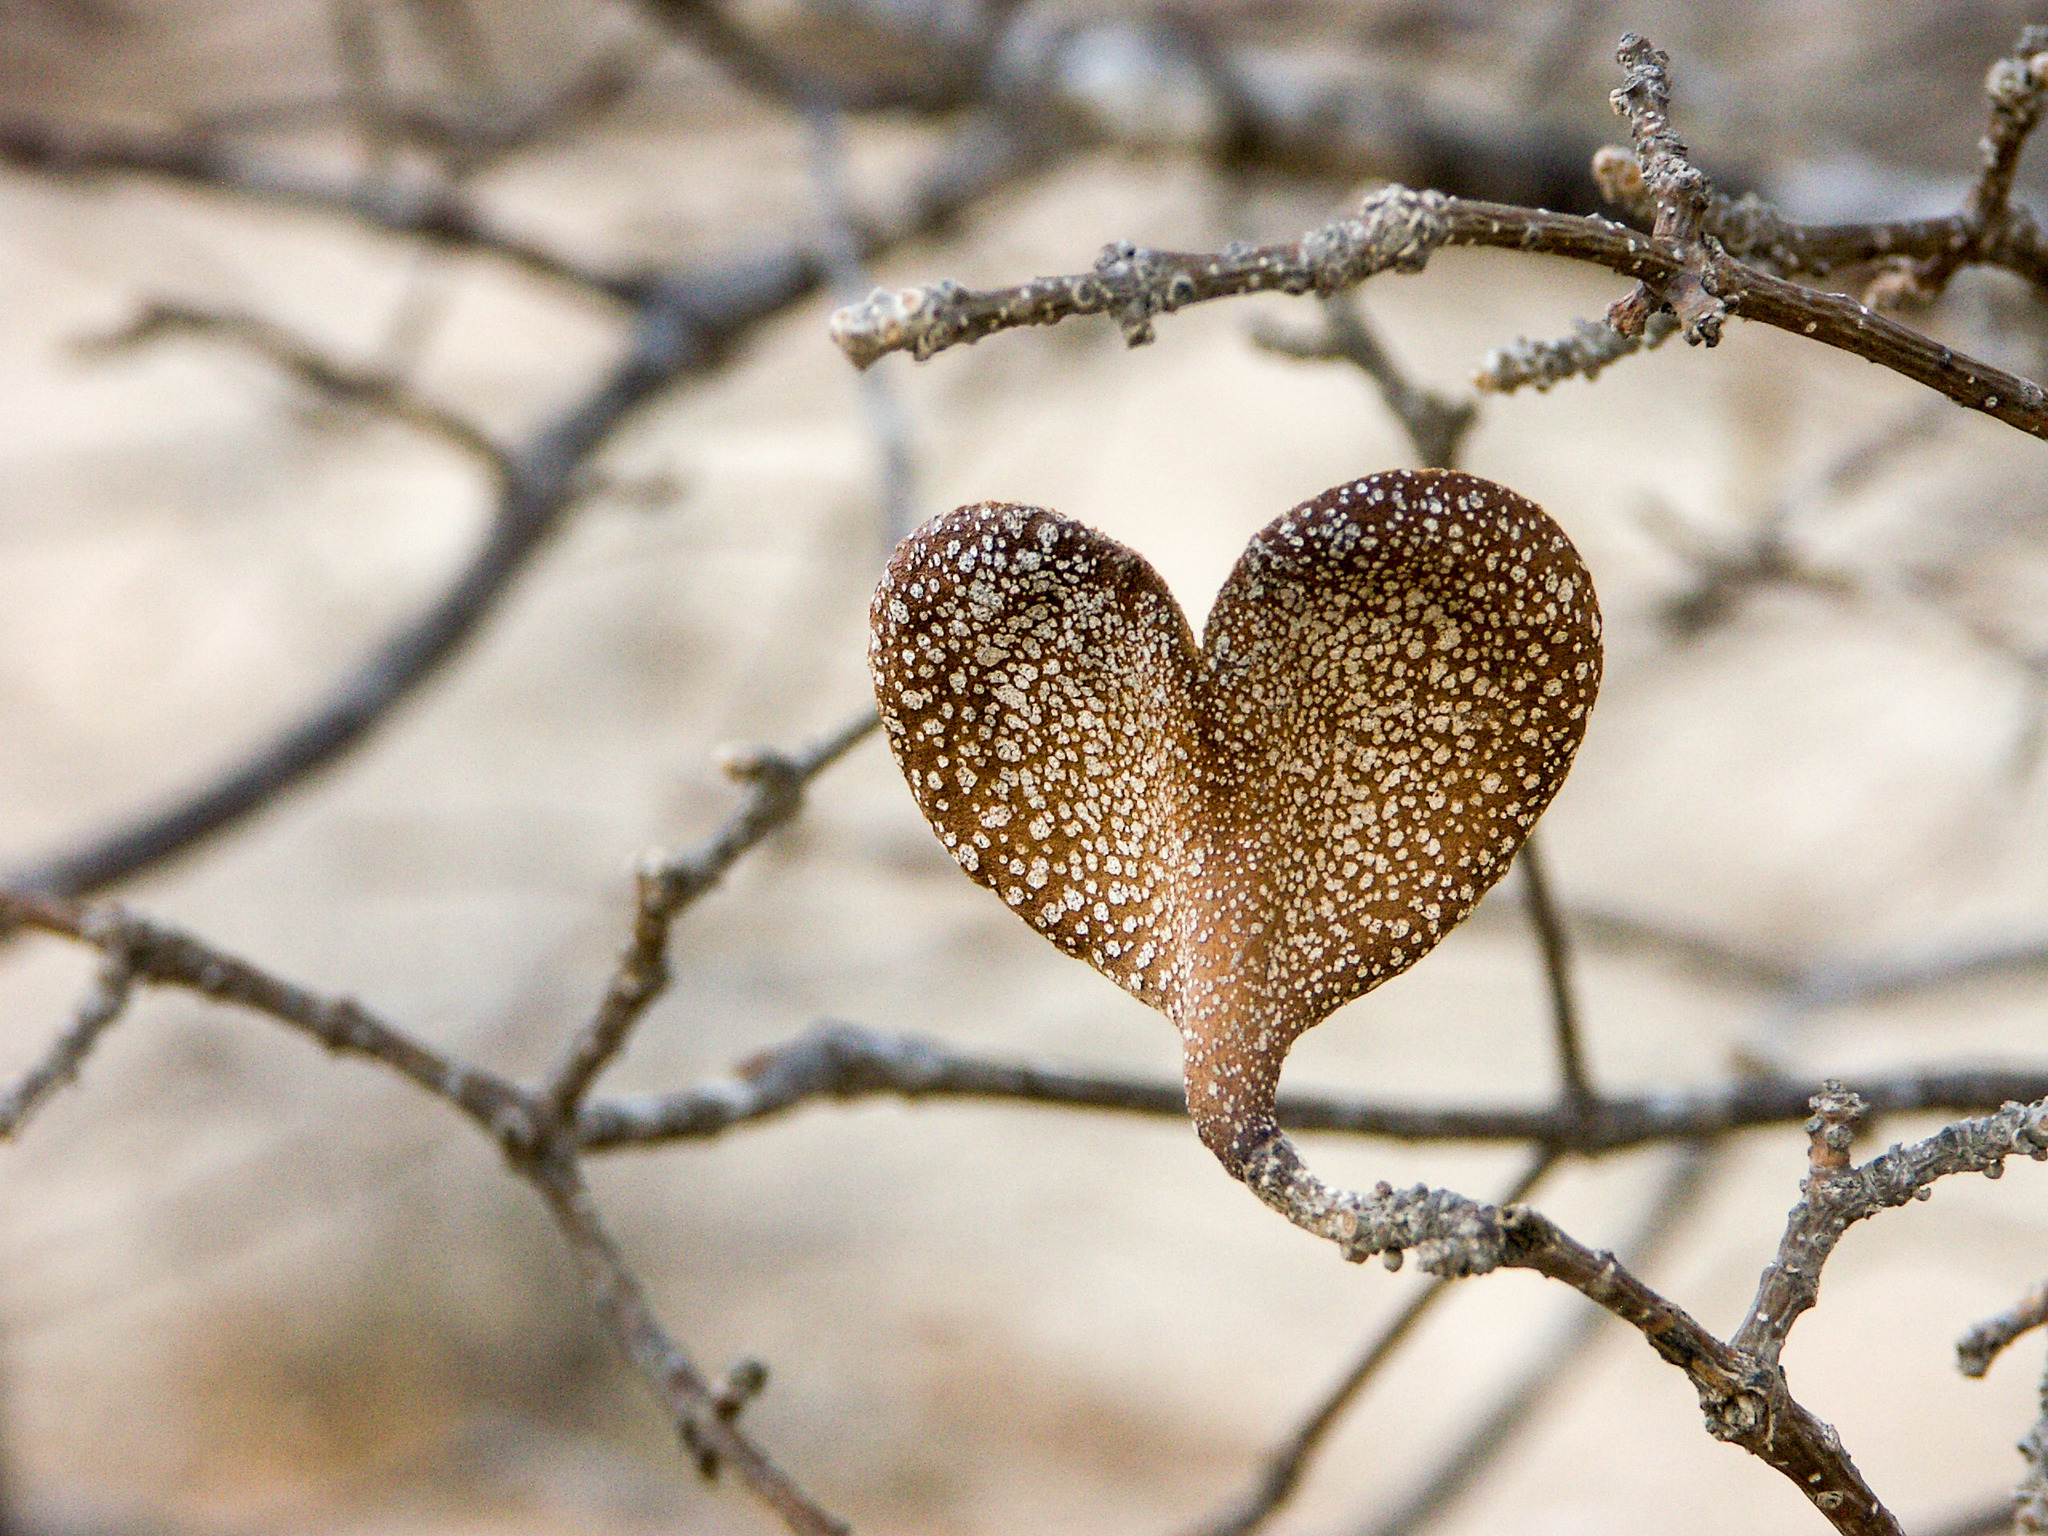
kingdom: Plantae
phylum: Tracheophyta
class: Magnoliopsida
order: Gentianales
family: Apocynaceae
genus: Aspidosperma
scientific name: Aspidosperma pyrifolium
